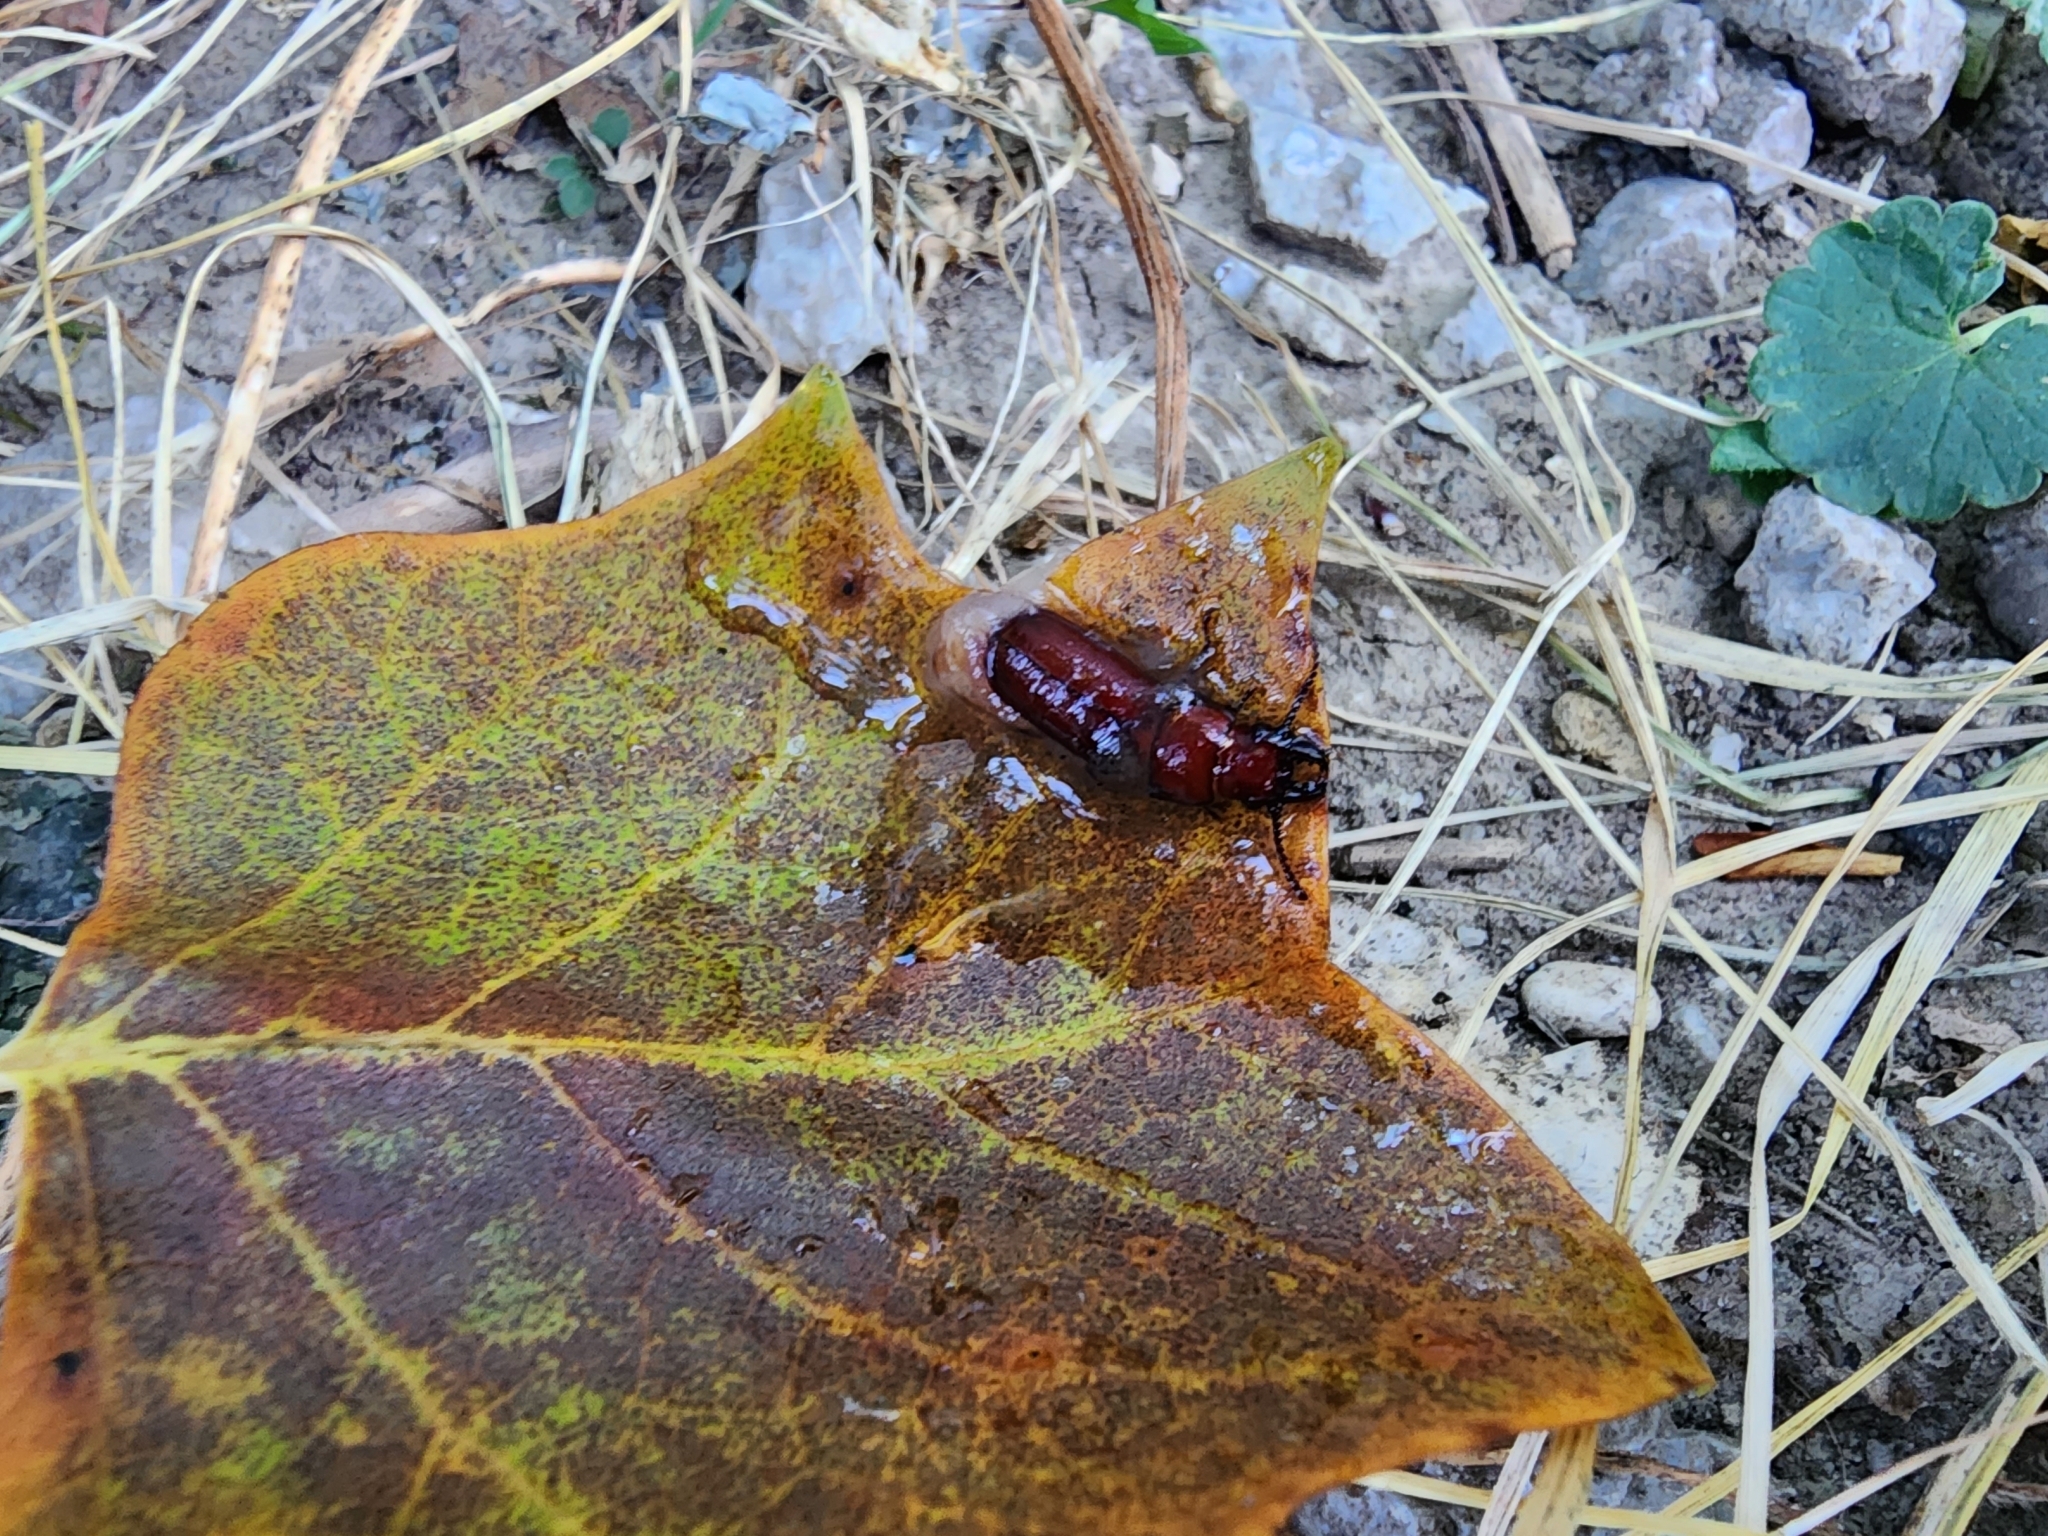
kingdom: Animalia
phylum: Arthropoda
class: Insecta
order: Coleoptera
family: Cerambycidae
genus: Neandra
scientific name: Neandra brunnea
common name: Pole borer
